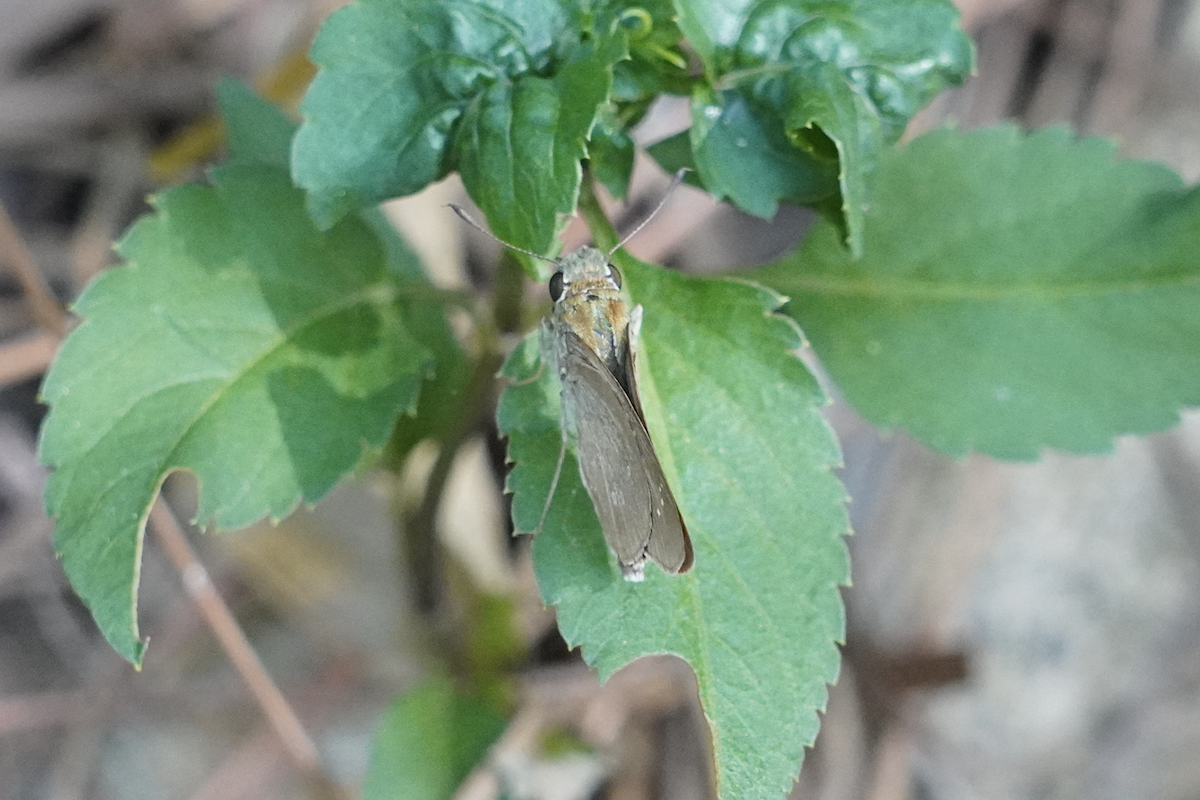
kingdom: Animalia
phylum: Arthropoda
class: Insecta
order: Lepidoptera
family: Hesperiidae
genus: Borbo
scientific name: Borbo cinnara
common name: Formosan swift
